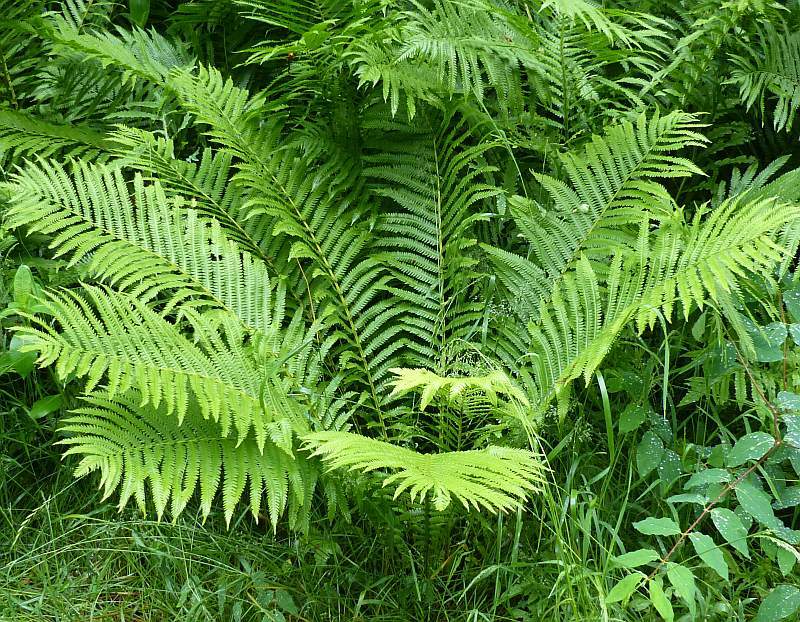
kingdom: Plantae
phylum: Tracheophyta
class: Polypodiopsida
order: Polypodiales
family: Onocleaceae
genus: Matteuccia
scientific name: Matteuccia struthiopteris
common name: Ostrich fern
